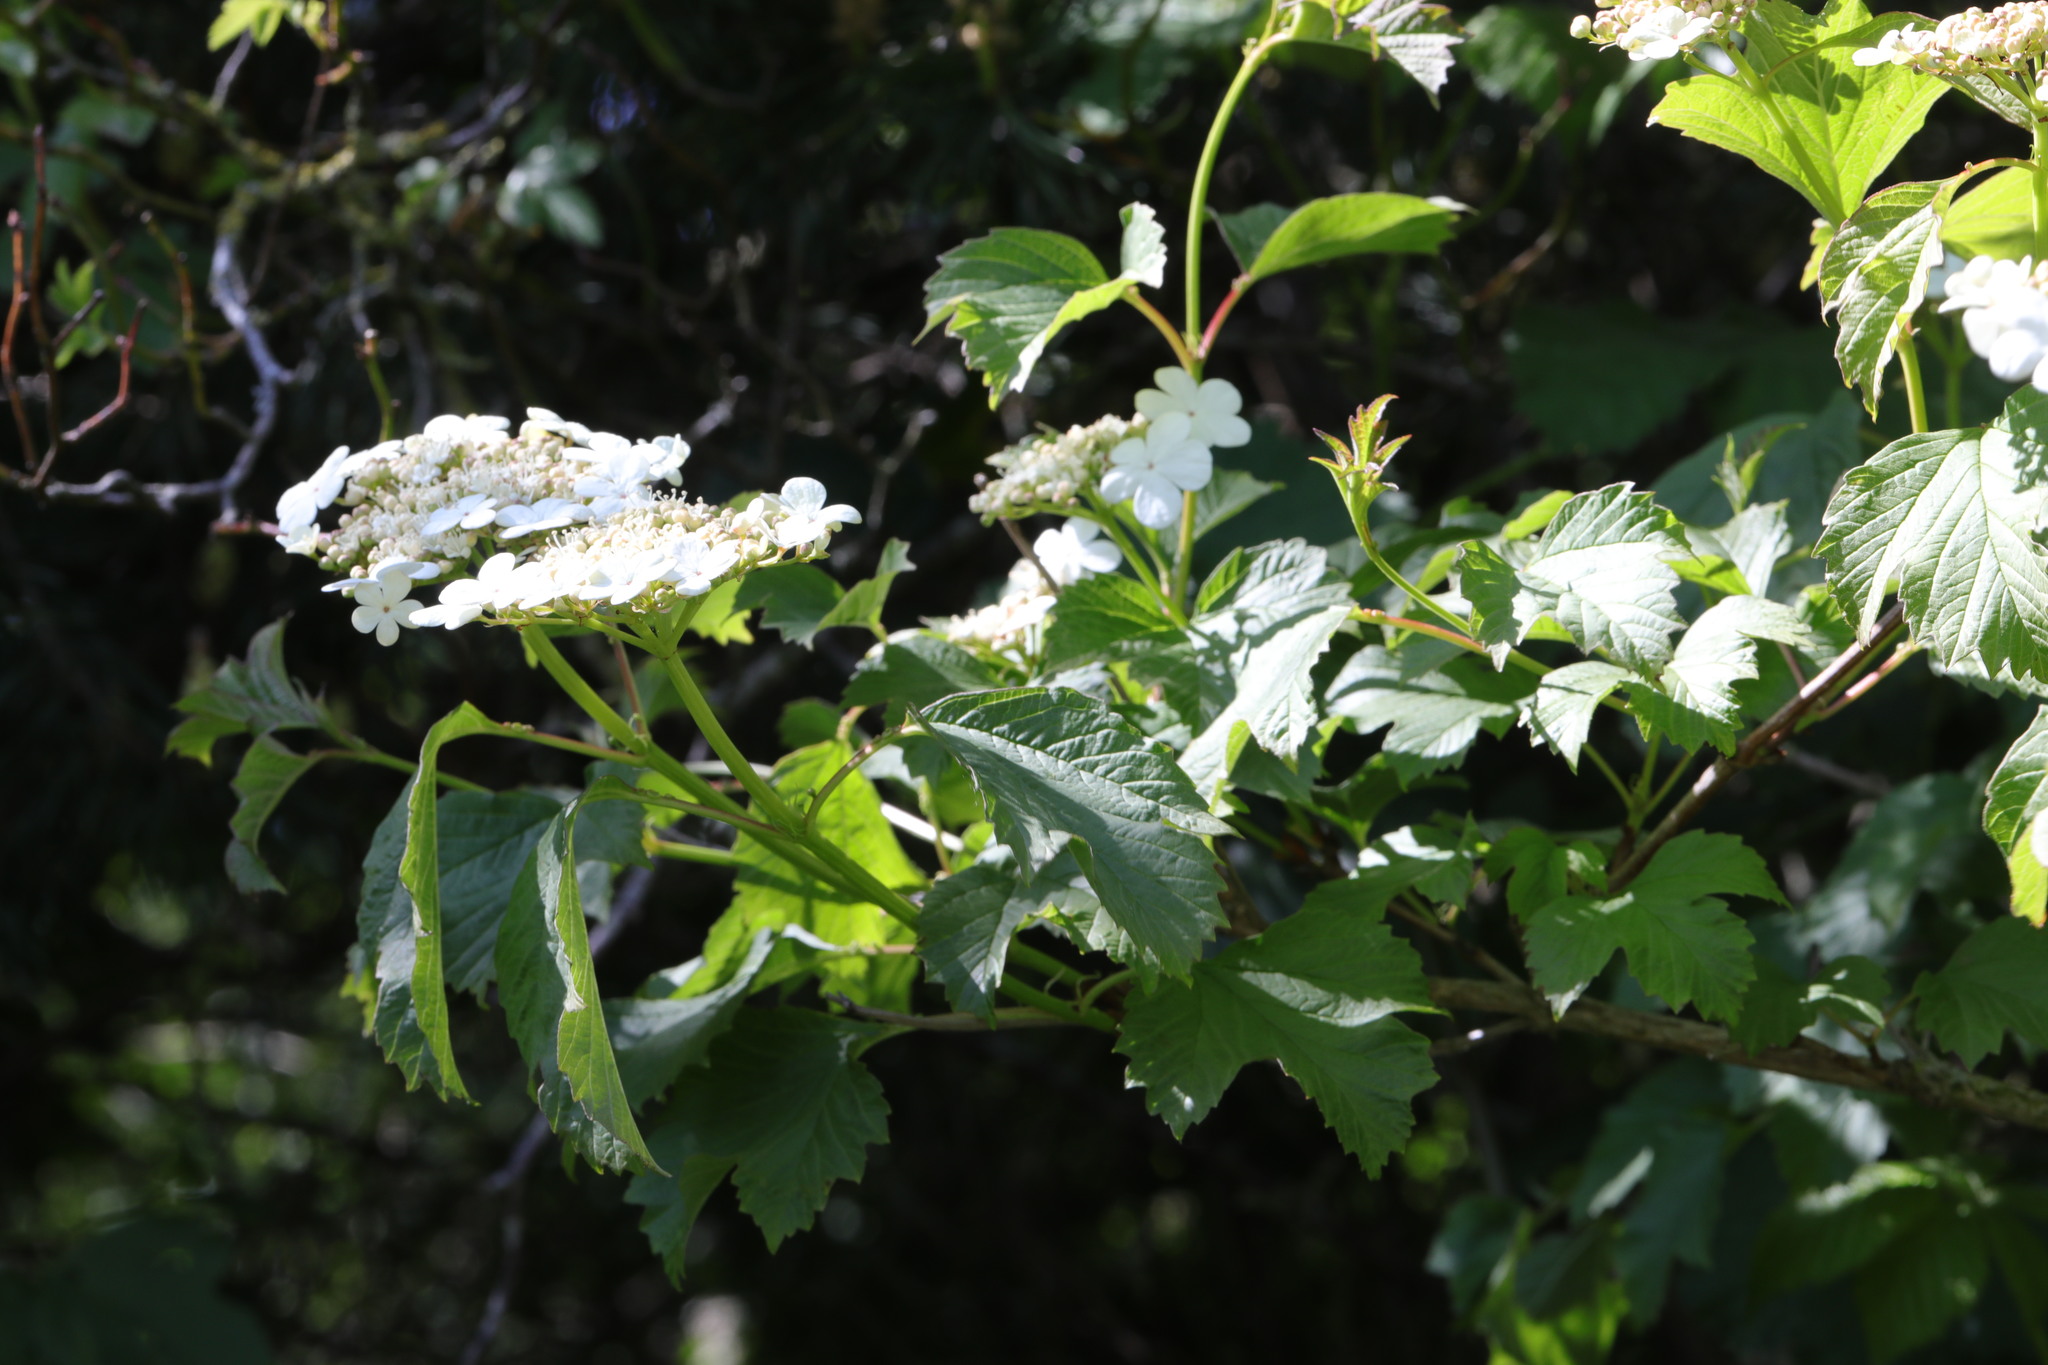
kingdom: Plantae
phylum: Tracheophyta
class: Magnoliopsida
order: Dipsacales
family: Viburnaceae
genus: Viburnum
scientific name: Viburnum opulus
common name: Guelder-rose
